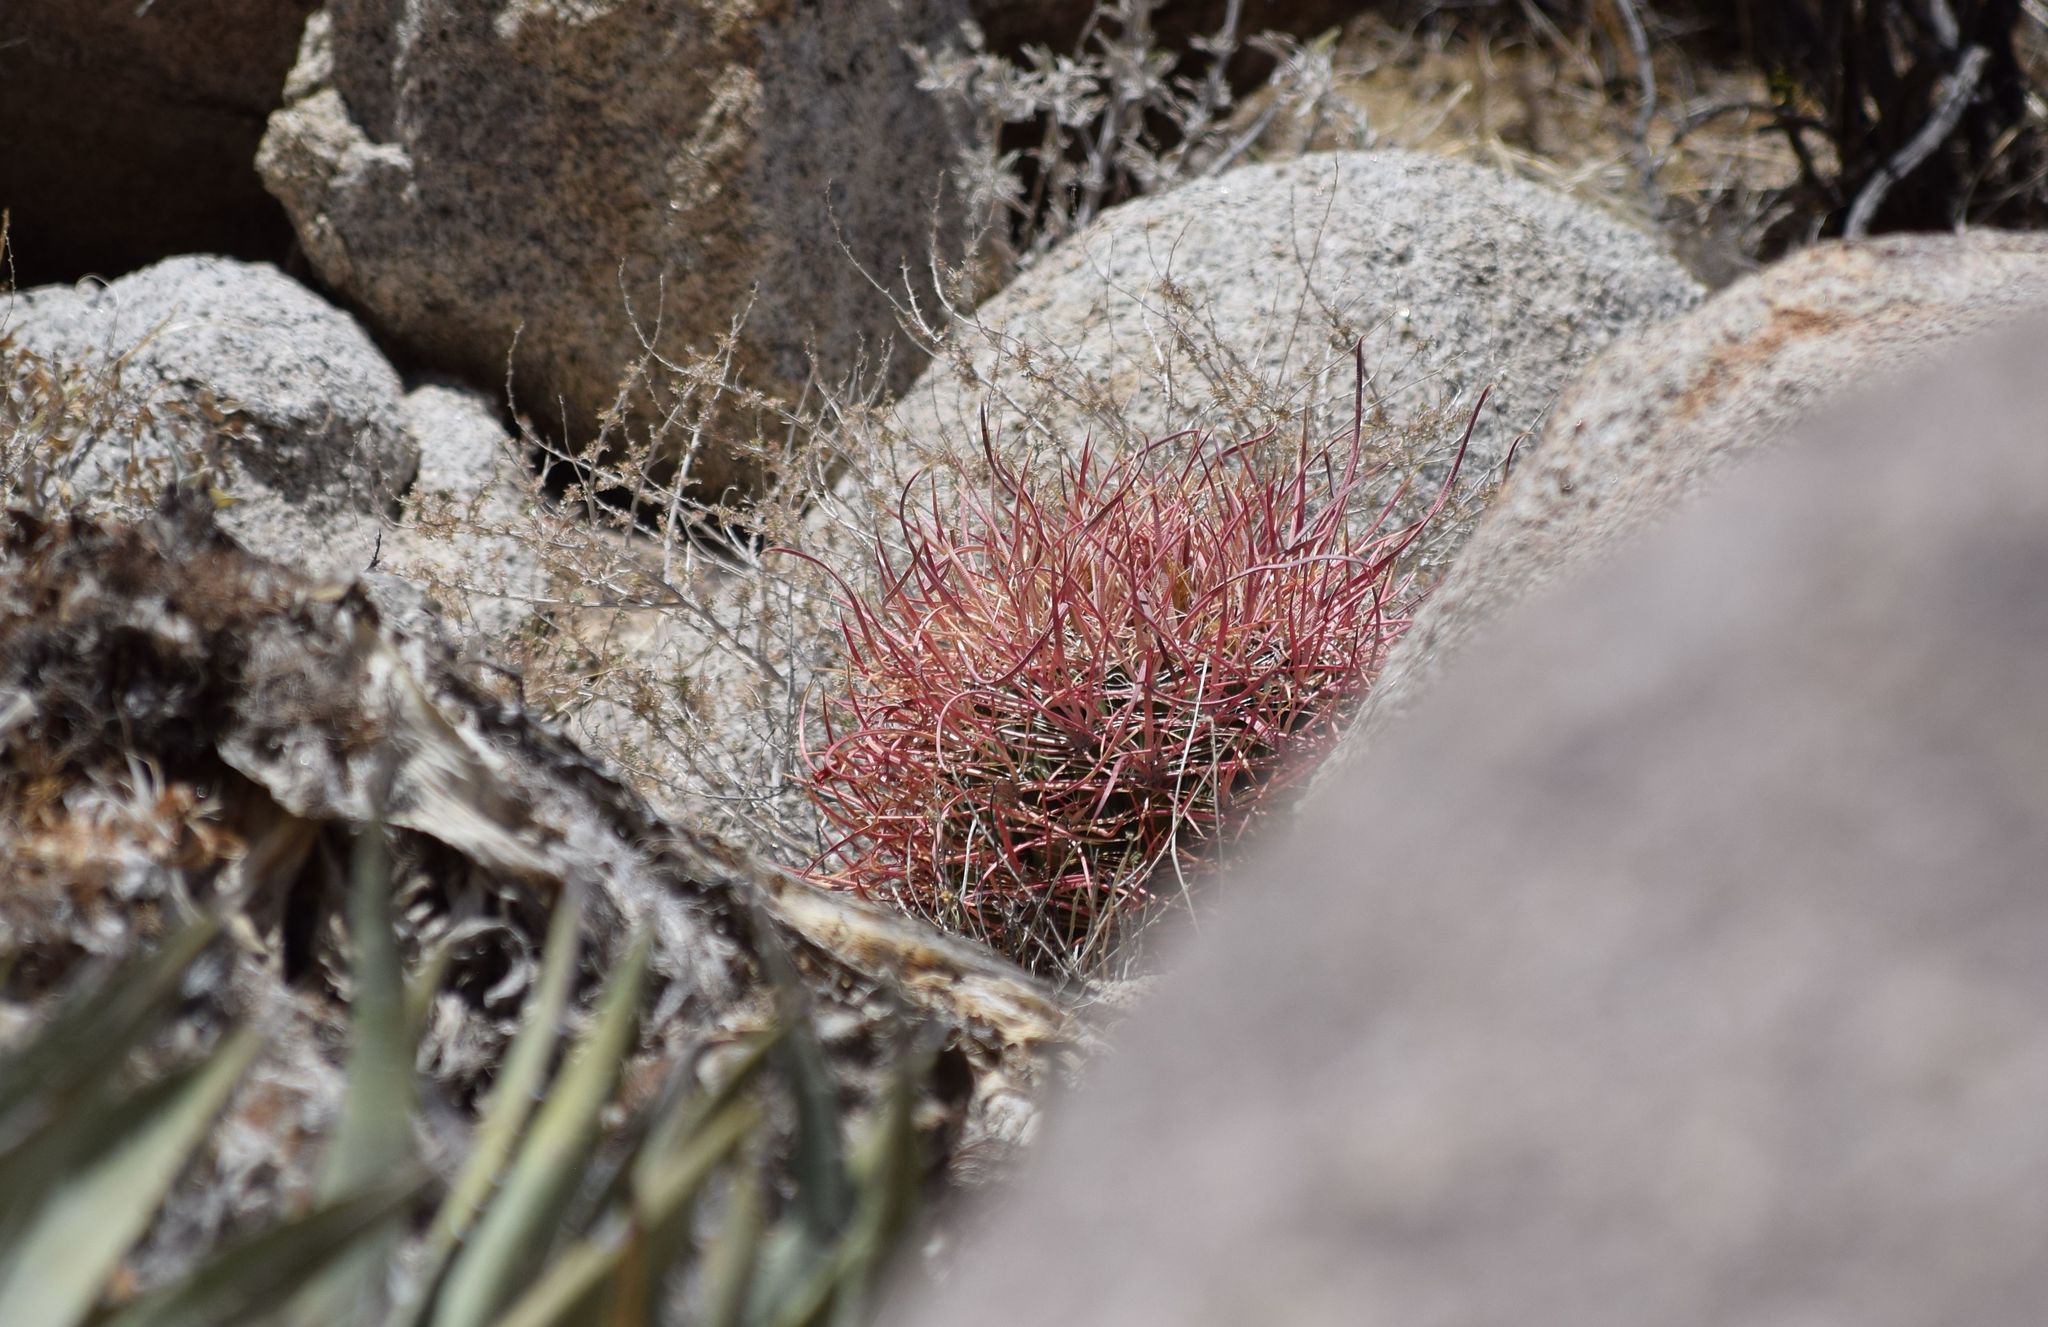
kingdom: Plantae
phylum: Tracheophyta
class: Magnoliopsida
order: Caryophyllales
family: Cactaceae
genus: Ferocactus
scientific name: Ferocactus cylindraceus
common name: California barrel cactus
